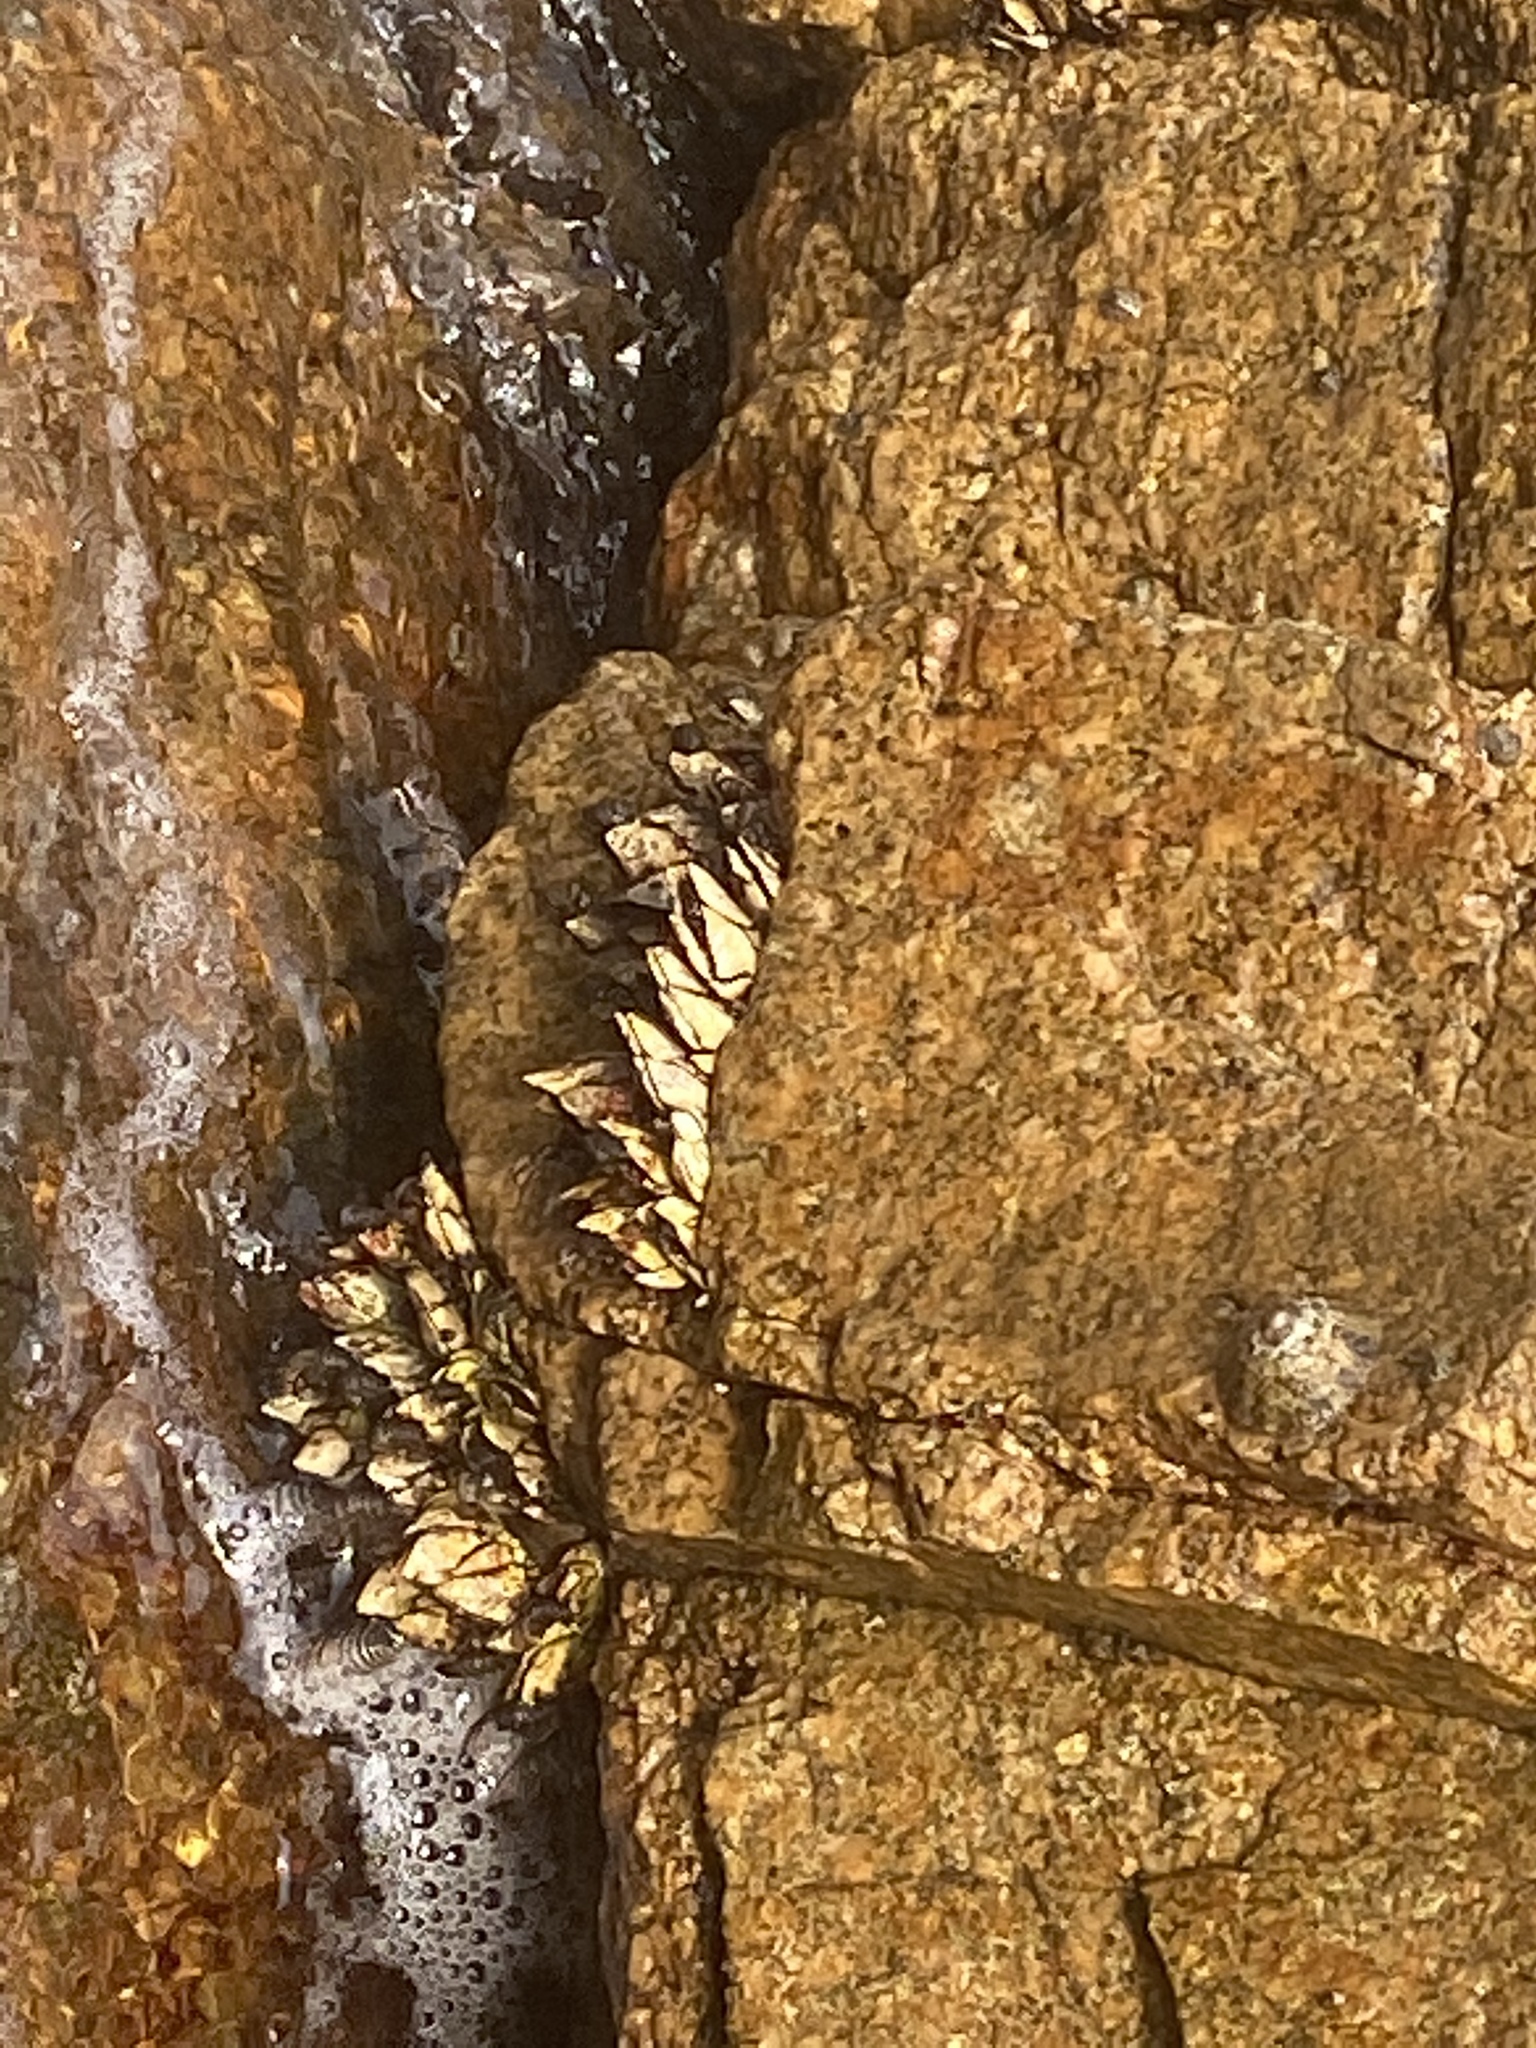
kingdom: Animalia
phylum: Arthropoda
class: Maxillopoda
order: Pedunculata
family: Pollicipedidae
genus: Capitulum
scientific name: Capitulum mitella
